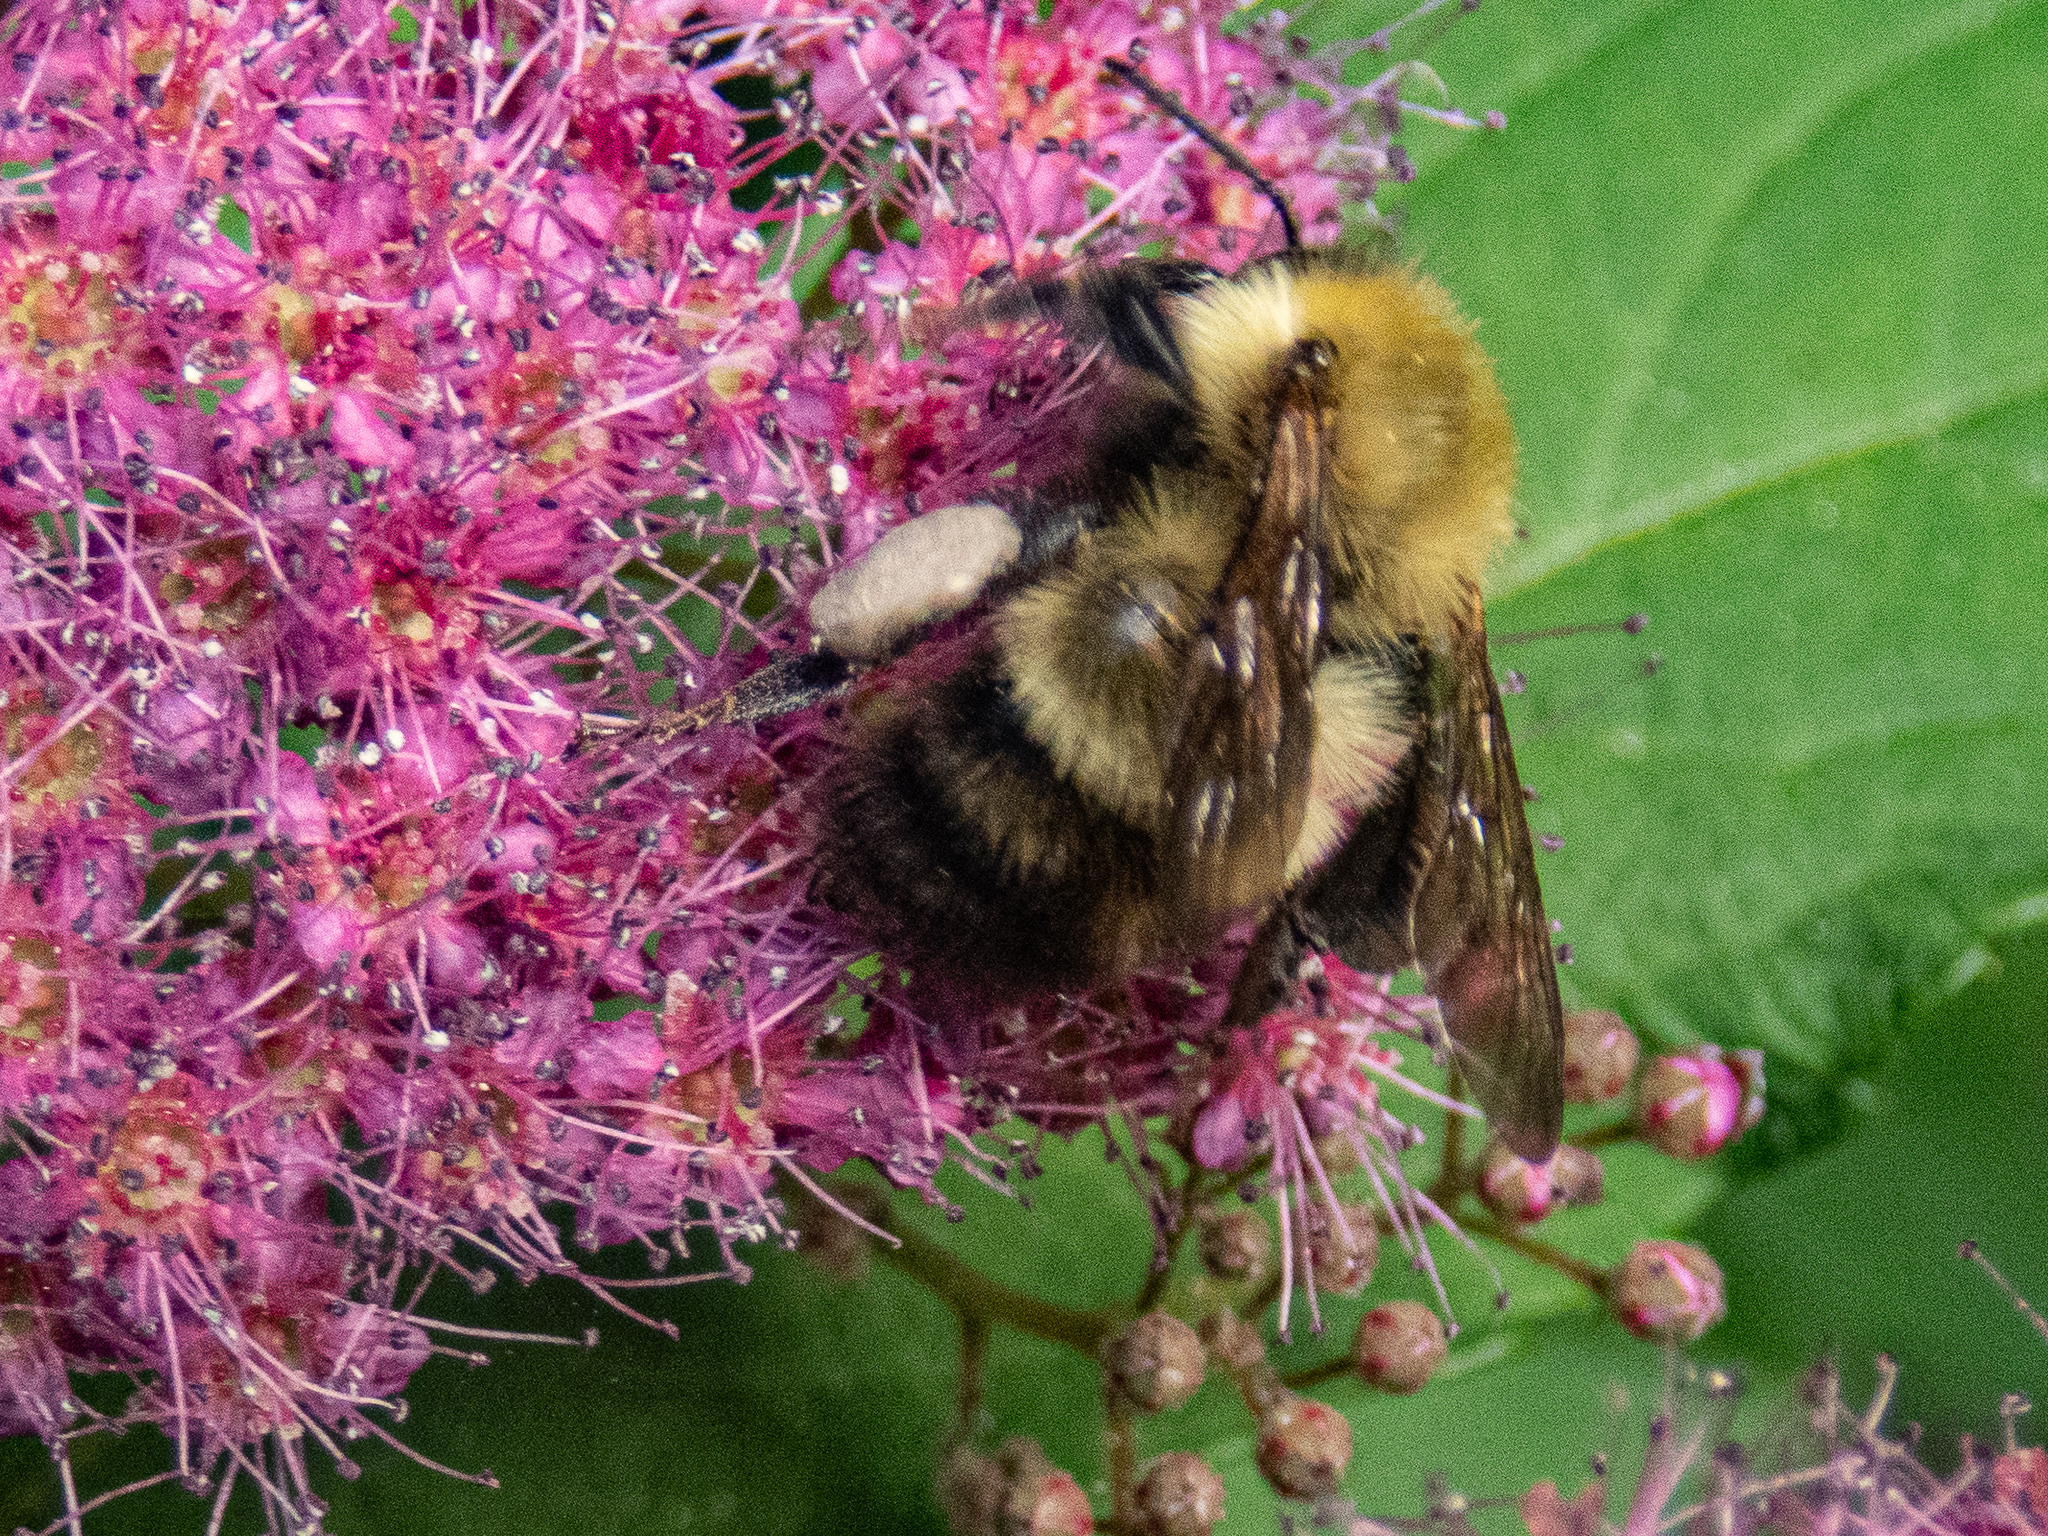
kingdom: Animalia
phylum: Arthropoda
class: Insecta
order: Hymenoptera
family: Apidae
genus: Bombus
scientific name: Bombus perplexus
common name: Confusing bumble bee
